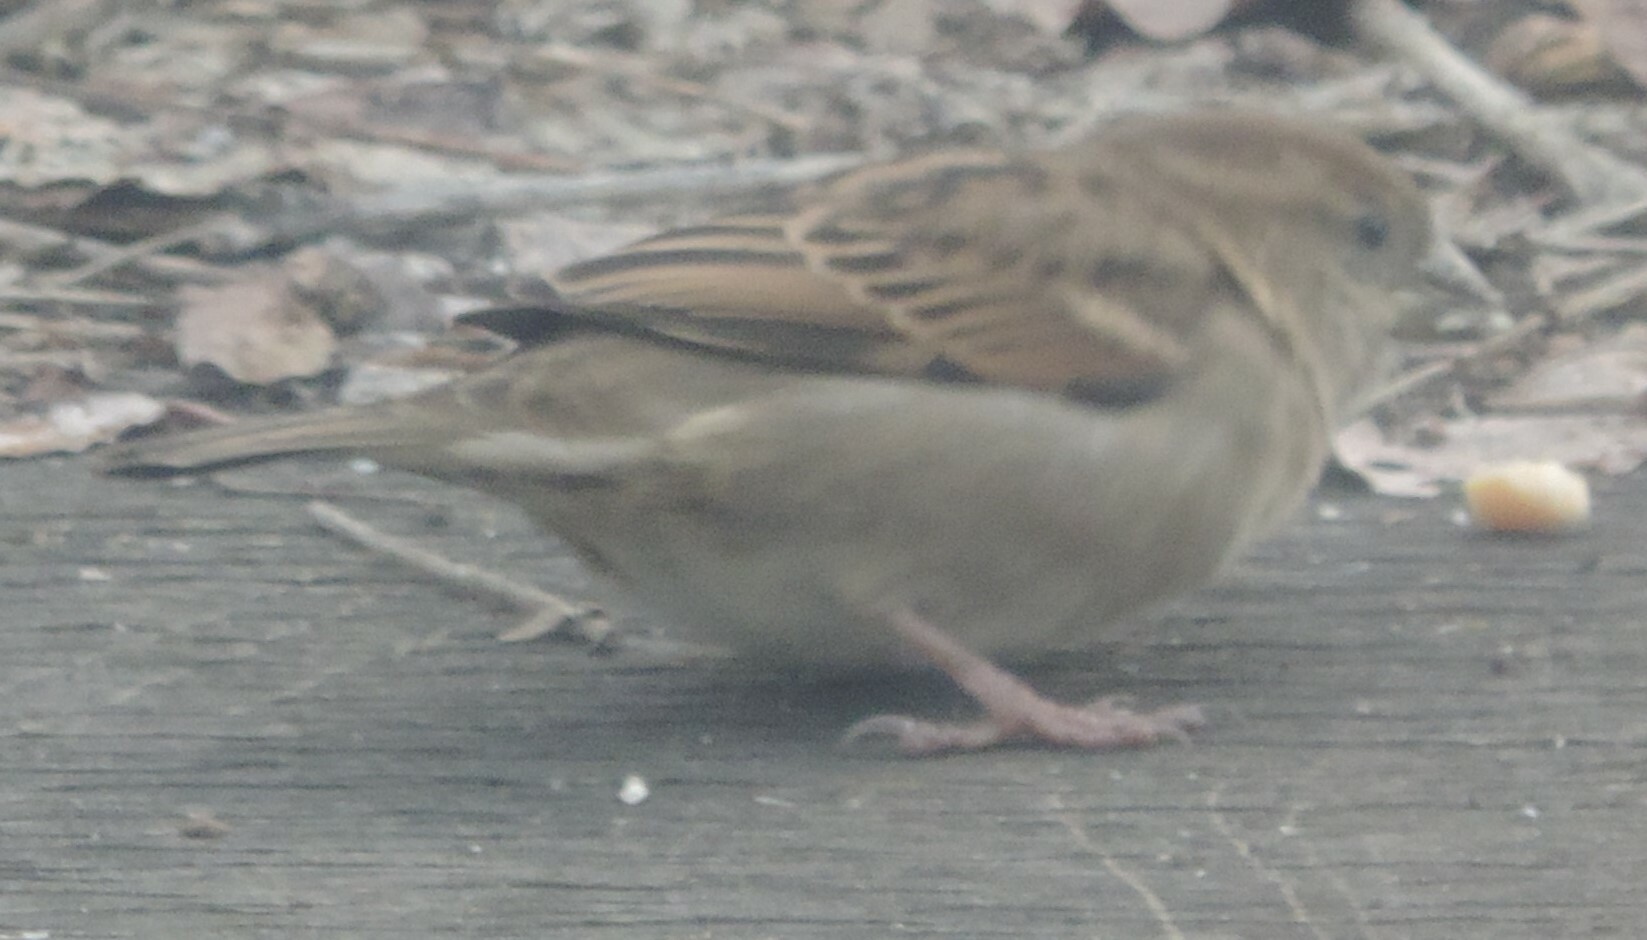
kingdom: Animalia
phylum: Chordata
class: Aves
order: Passeriformes
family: Passeridae
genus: Passer
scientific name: Passer domesticus
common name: House sparrow
